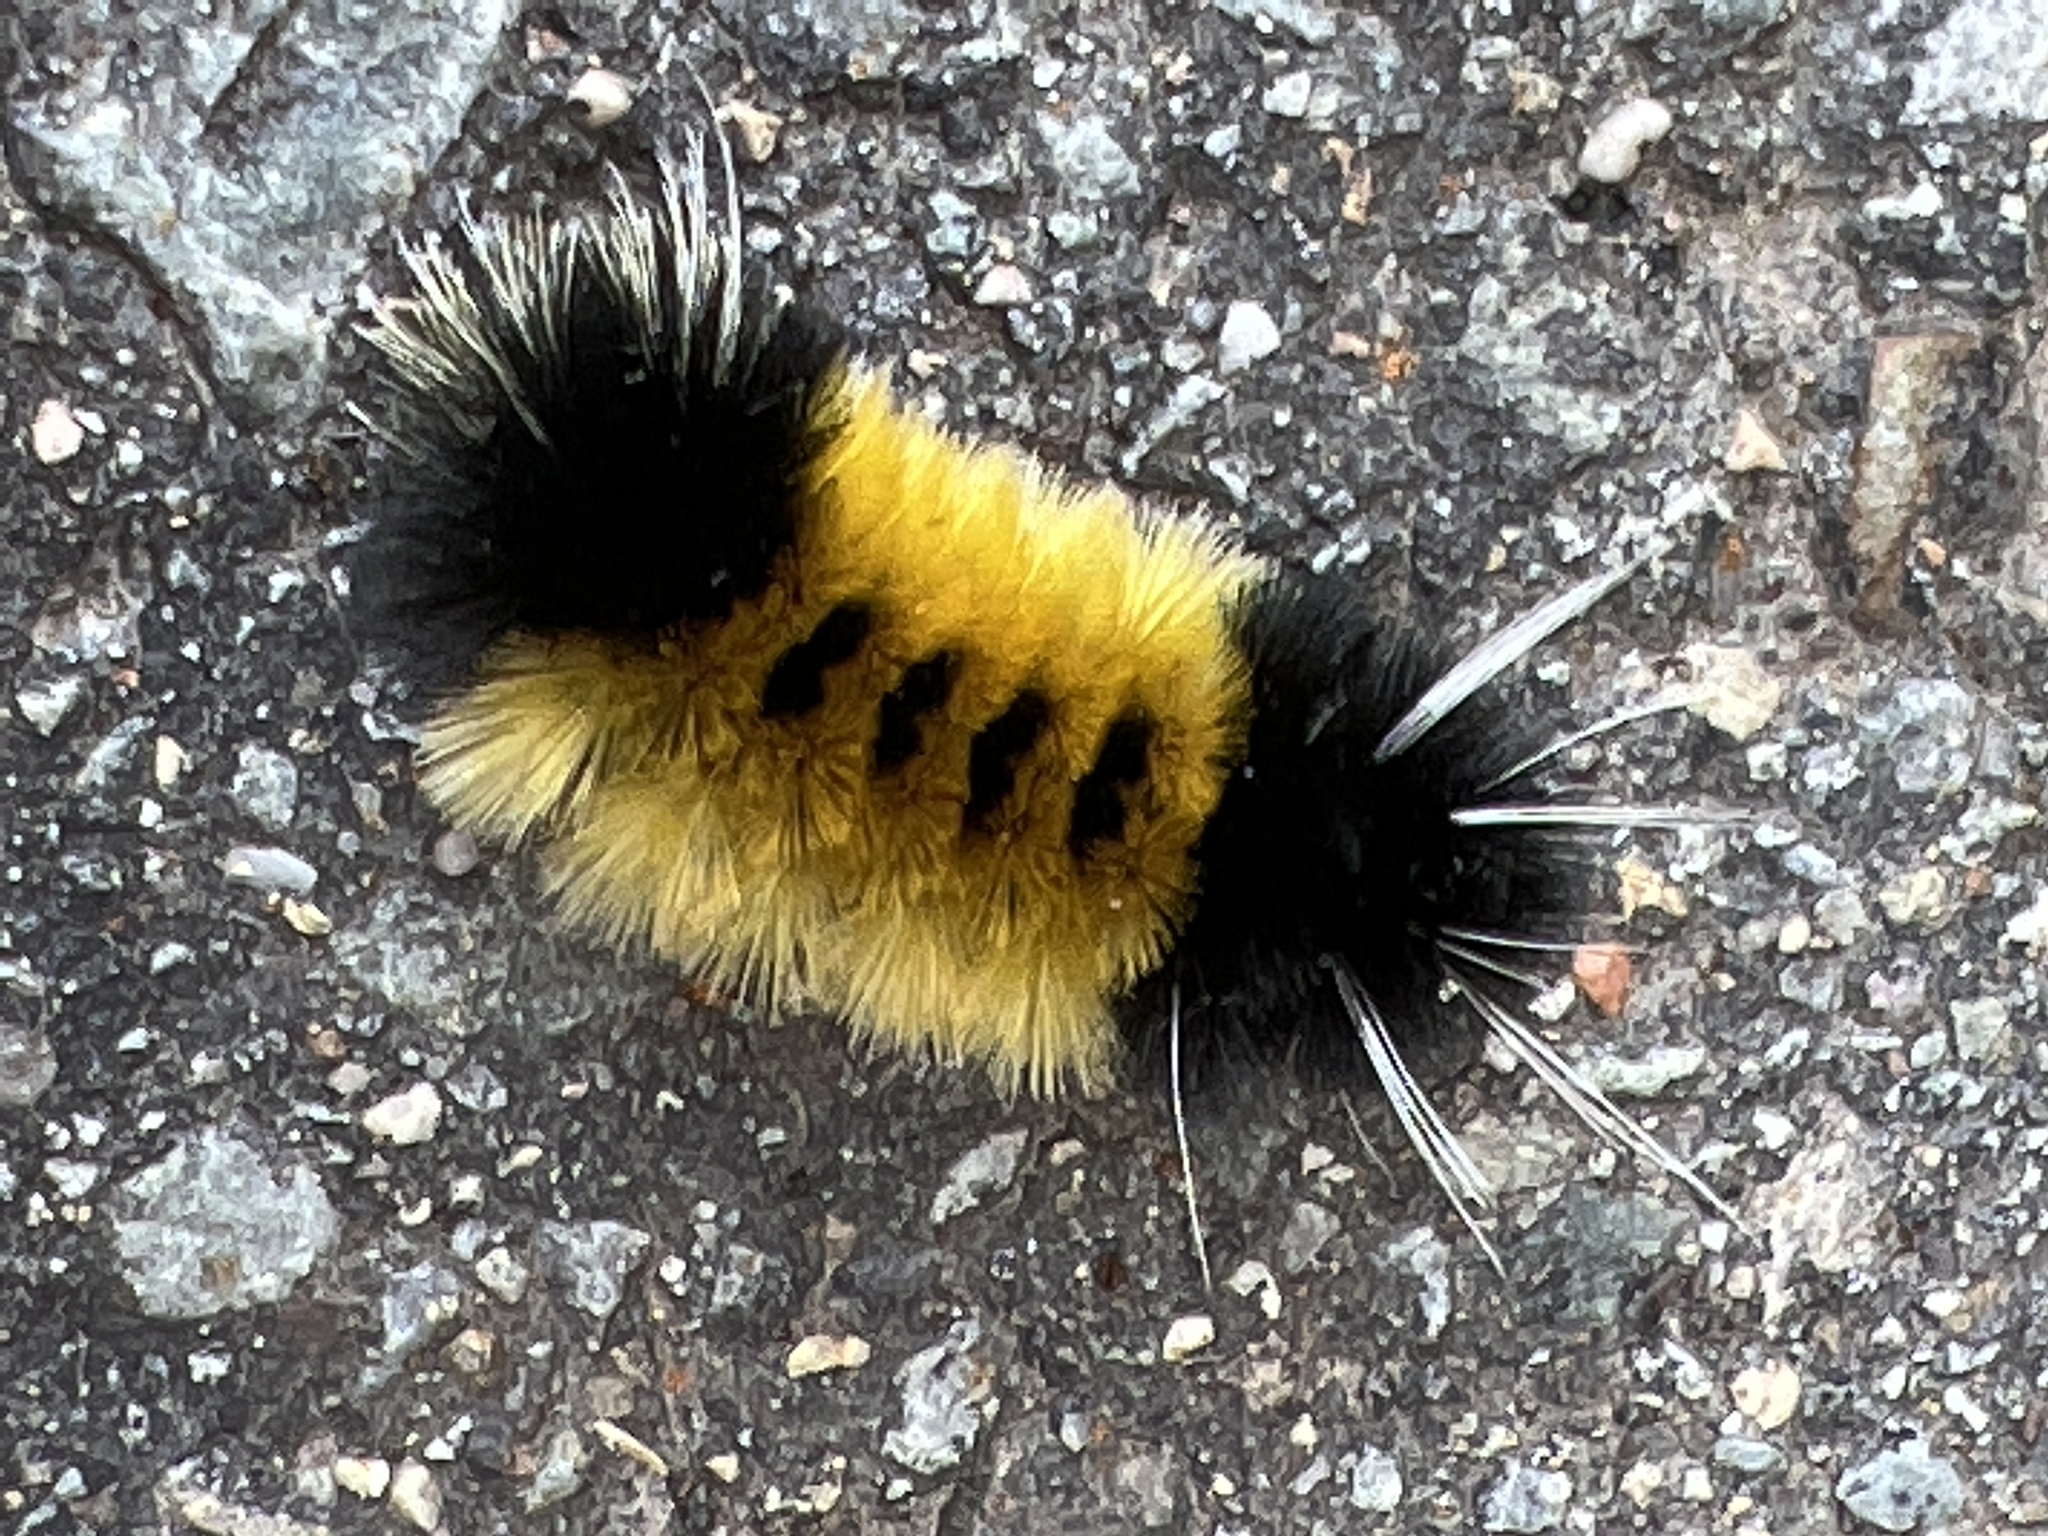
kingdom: Animalia
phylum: Arthropoda
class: Insecta
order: Lepidoptera
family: Erebidae
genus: Lophocampa
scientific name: Lophocampa maculata
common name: Spotted tussock moth
